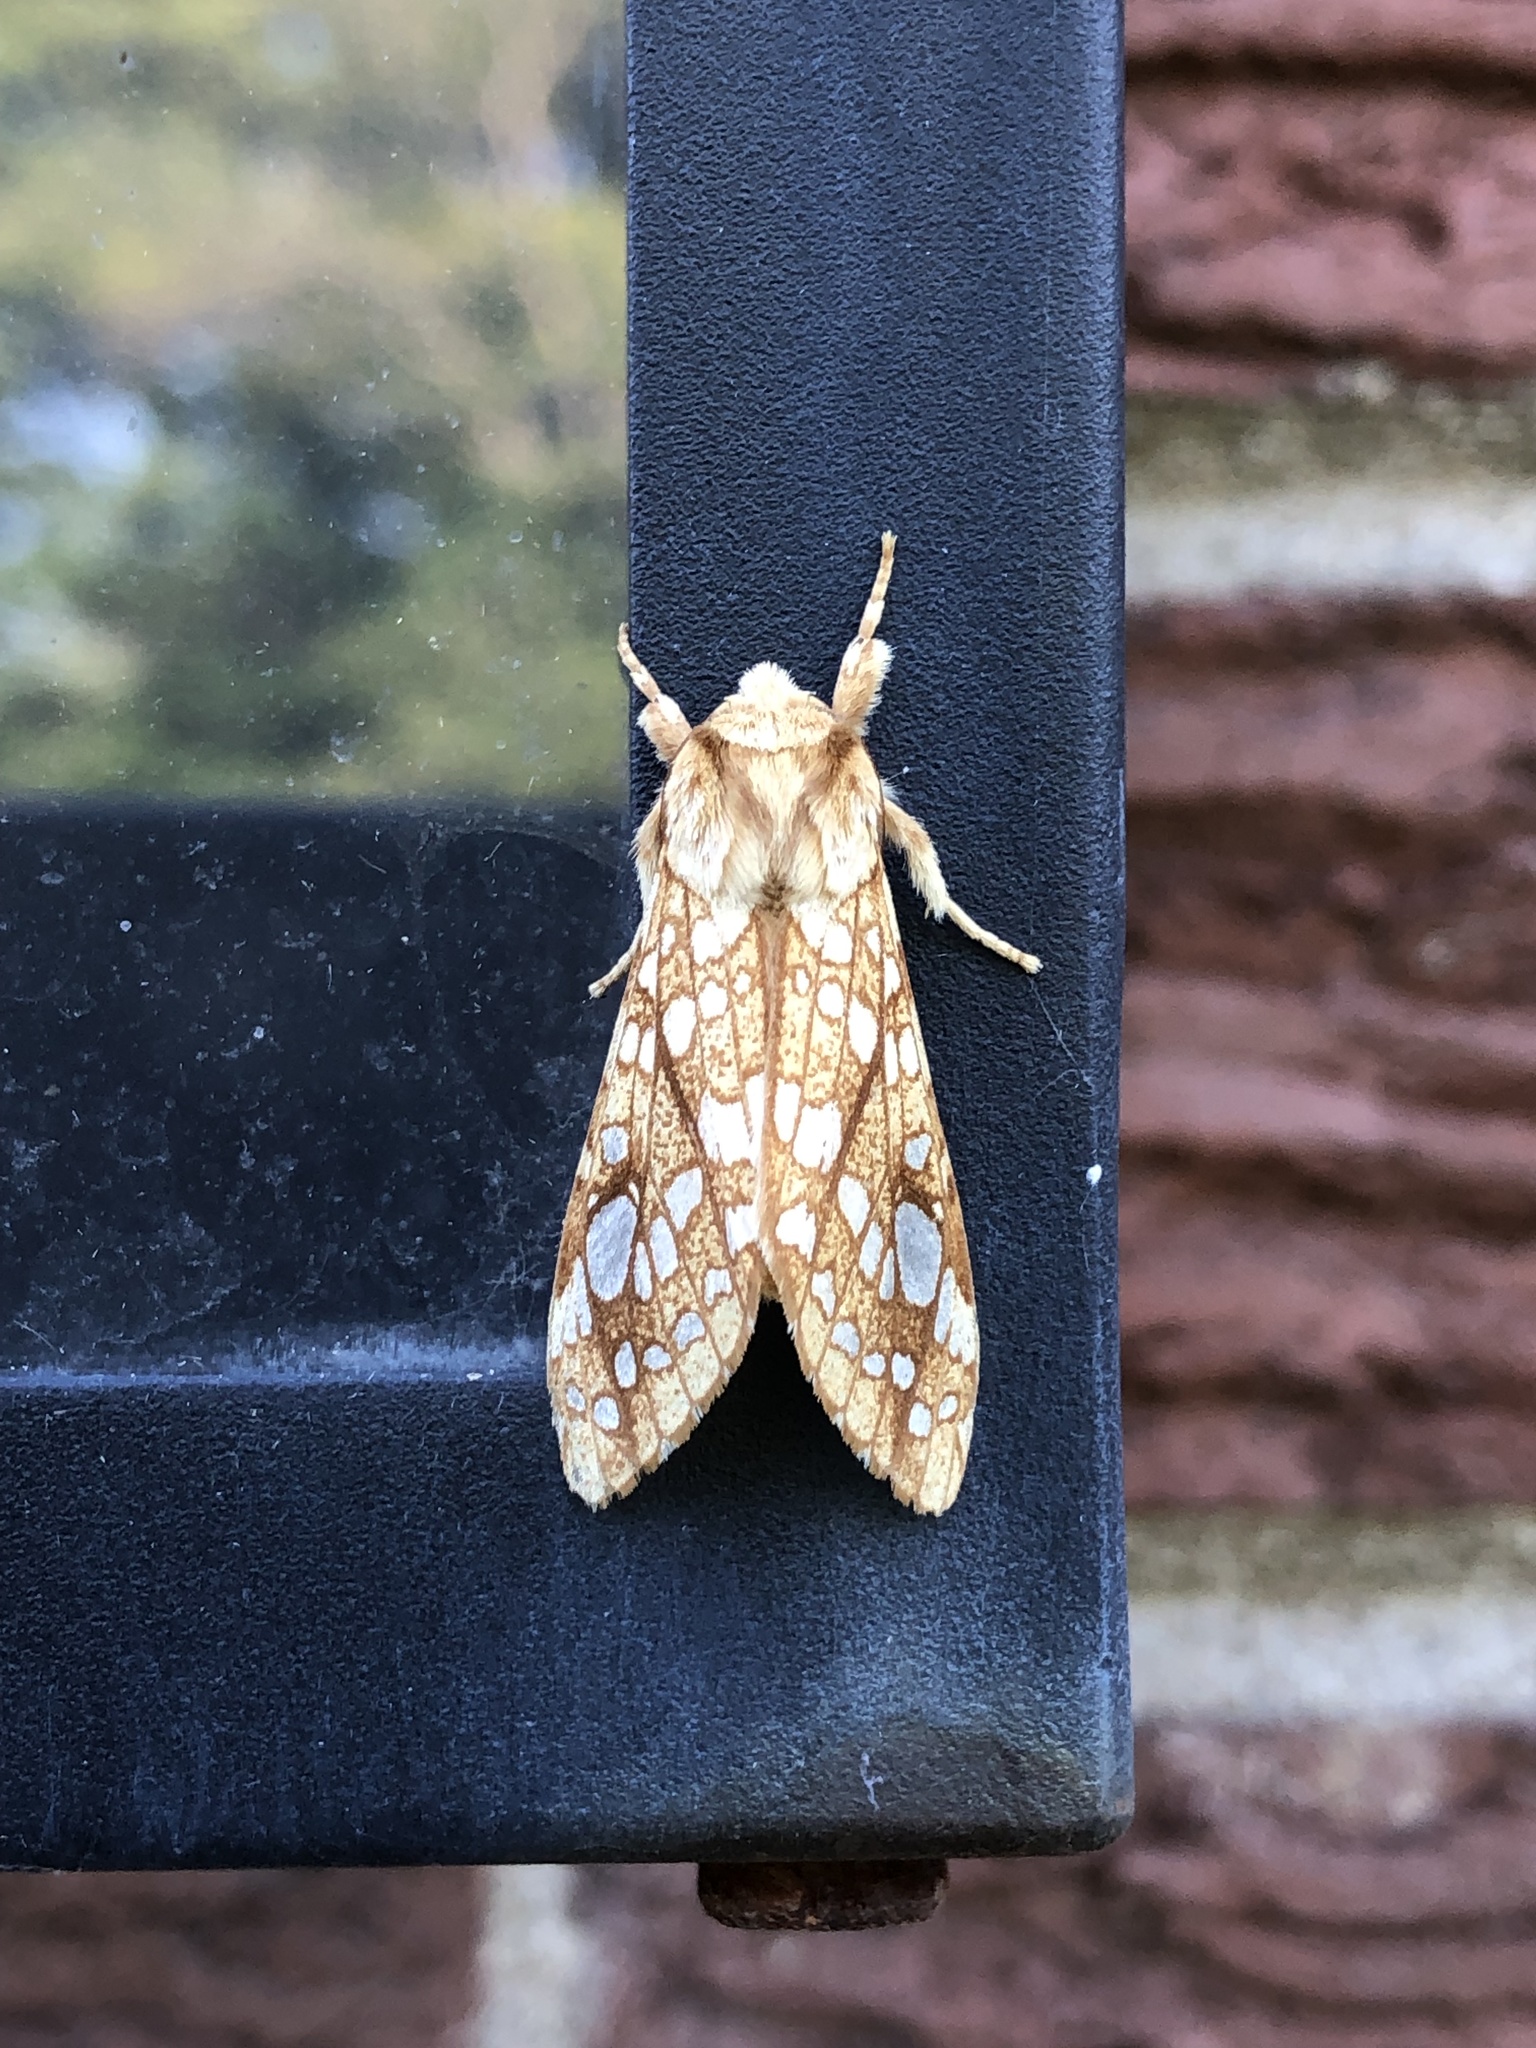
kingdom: Animalia
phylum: Arthropoda
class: Insecta
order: Lepidoptera
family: Erebidae
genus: Lophocampa
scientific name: Lophocampa caryae
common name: Hickory tussock moth
